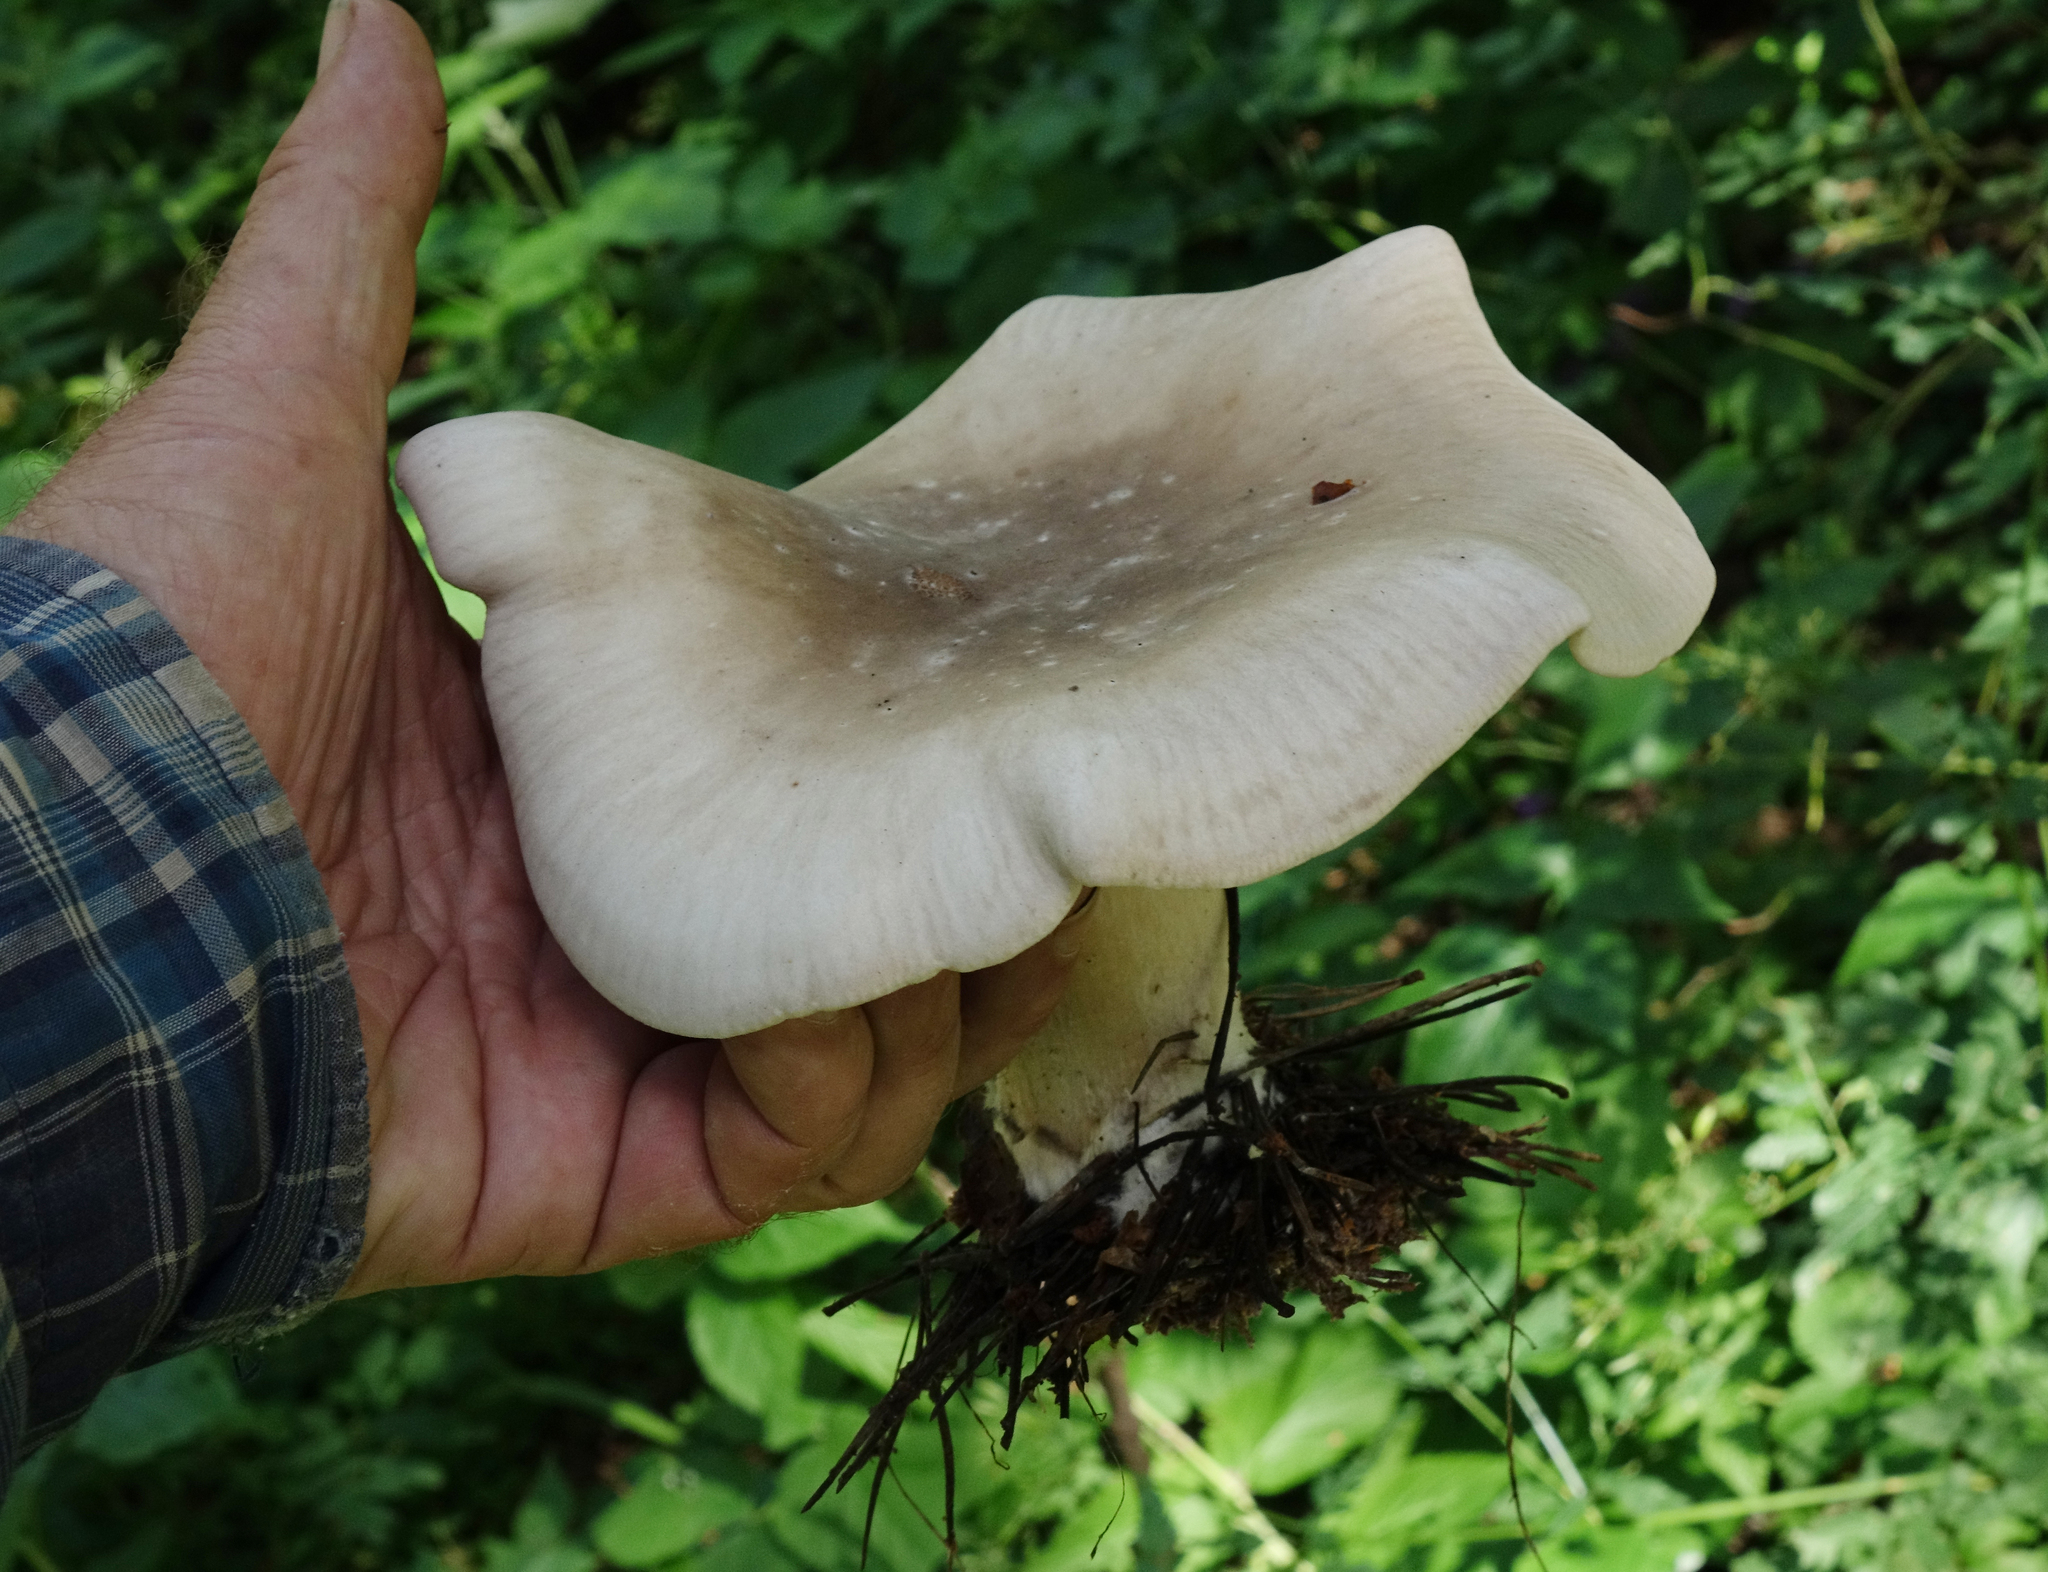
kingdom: Fungi
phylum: Basidiomycota
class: Agaricomycetes
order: Agaricales
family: Tricholomataceae
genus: Clitocybe
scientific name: Clitocybe nebularis
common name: Clouded agaric
